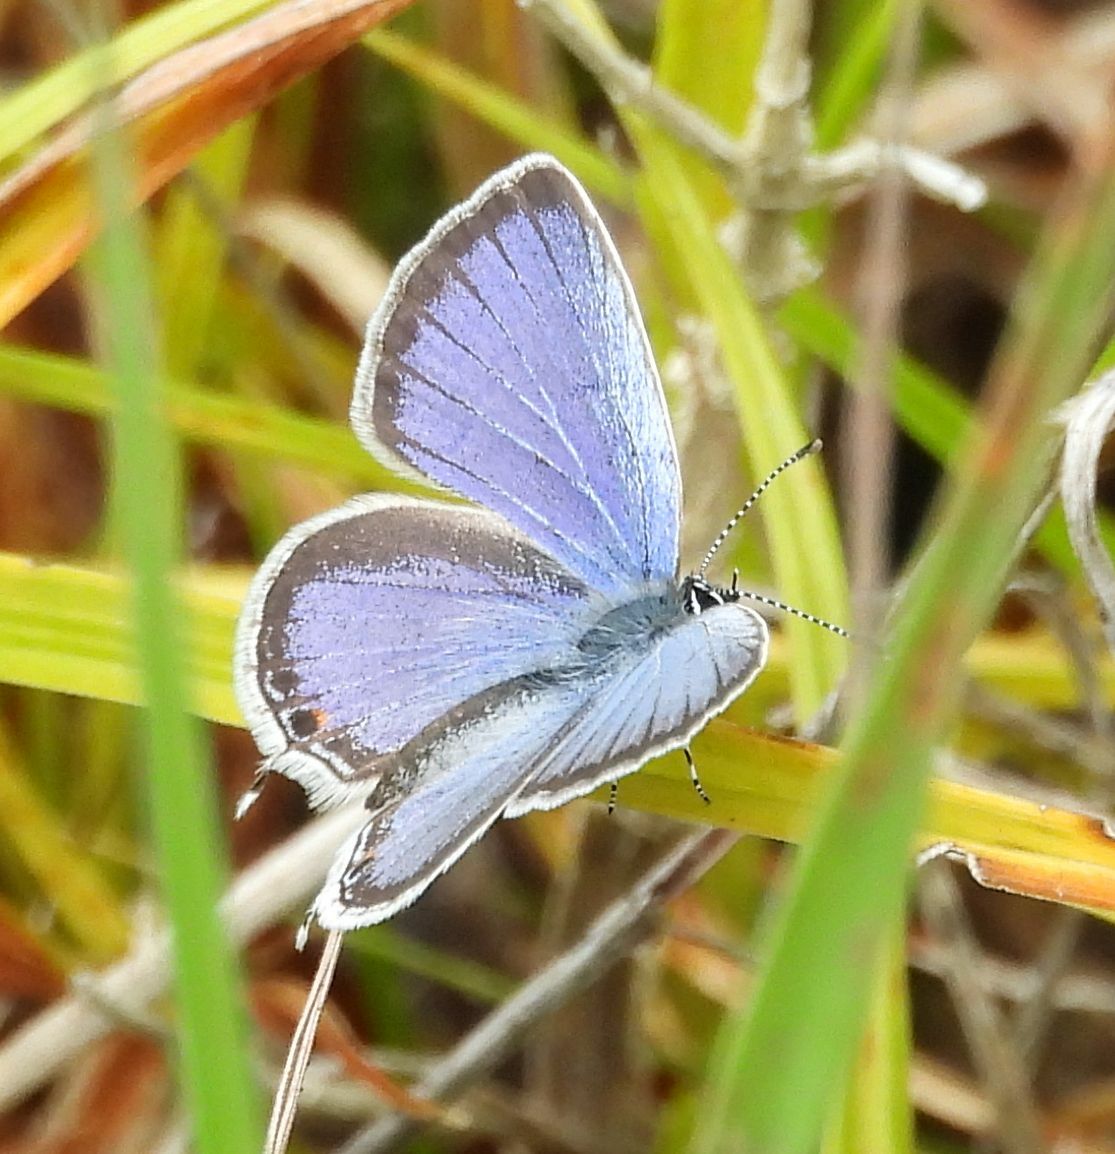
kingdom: Animalia
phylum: Arthropoda
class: Insecta
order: Lepidoptera
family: Lycaenidae
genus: Elkalyce
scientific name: Elkalyce comyntas
